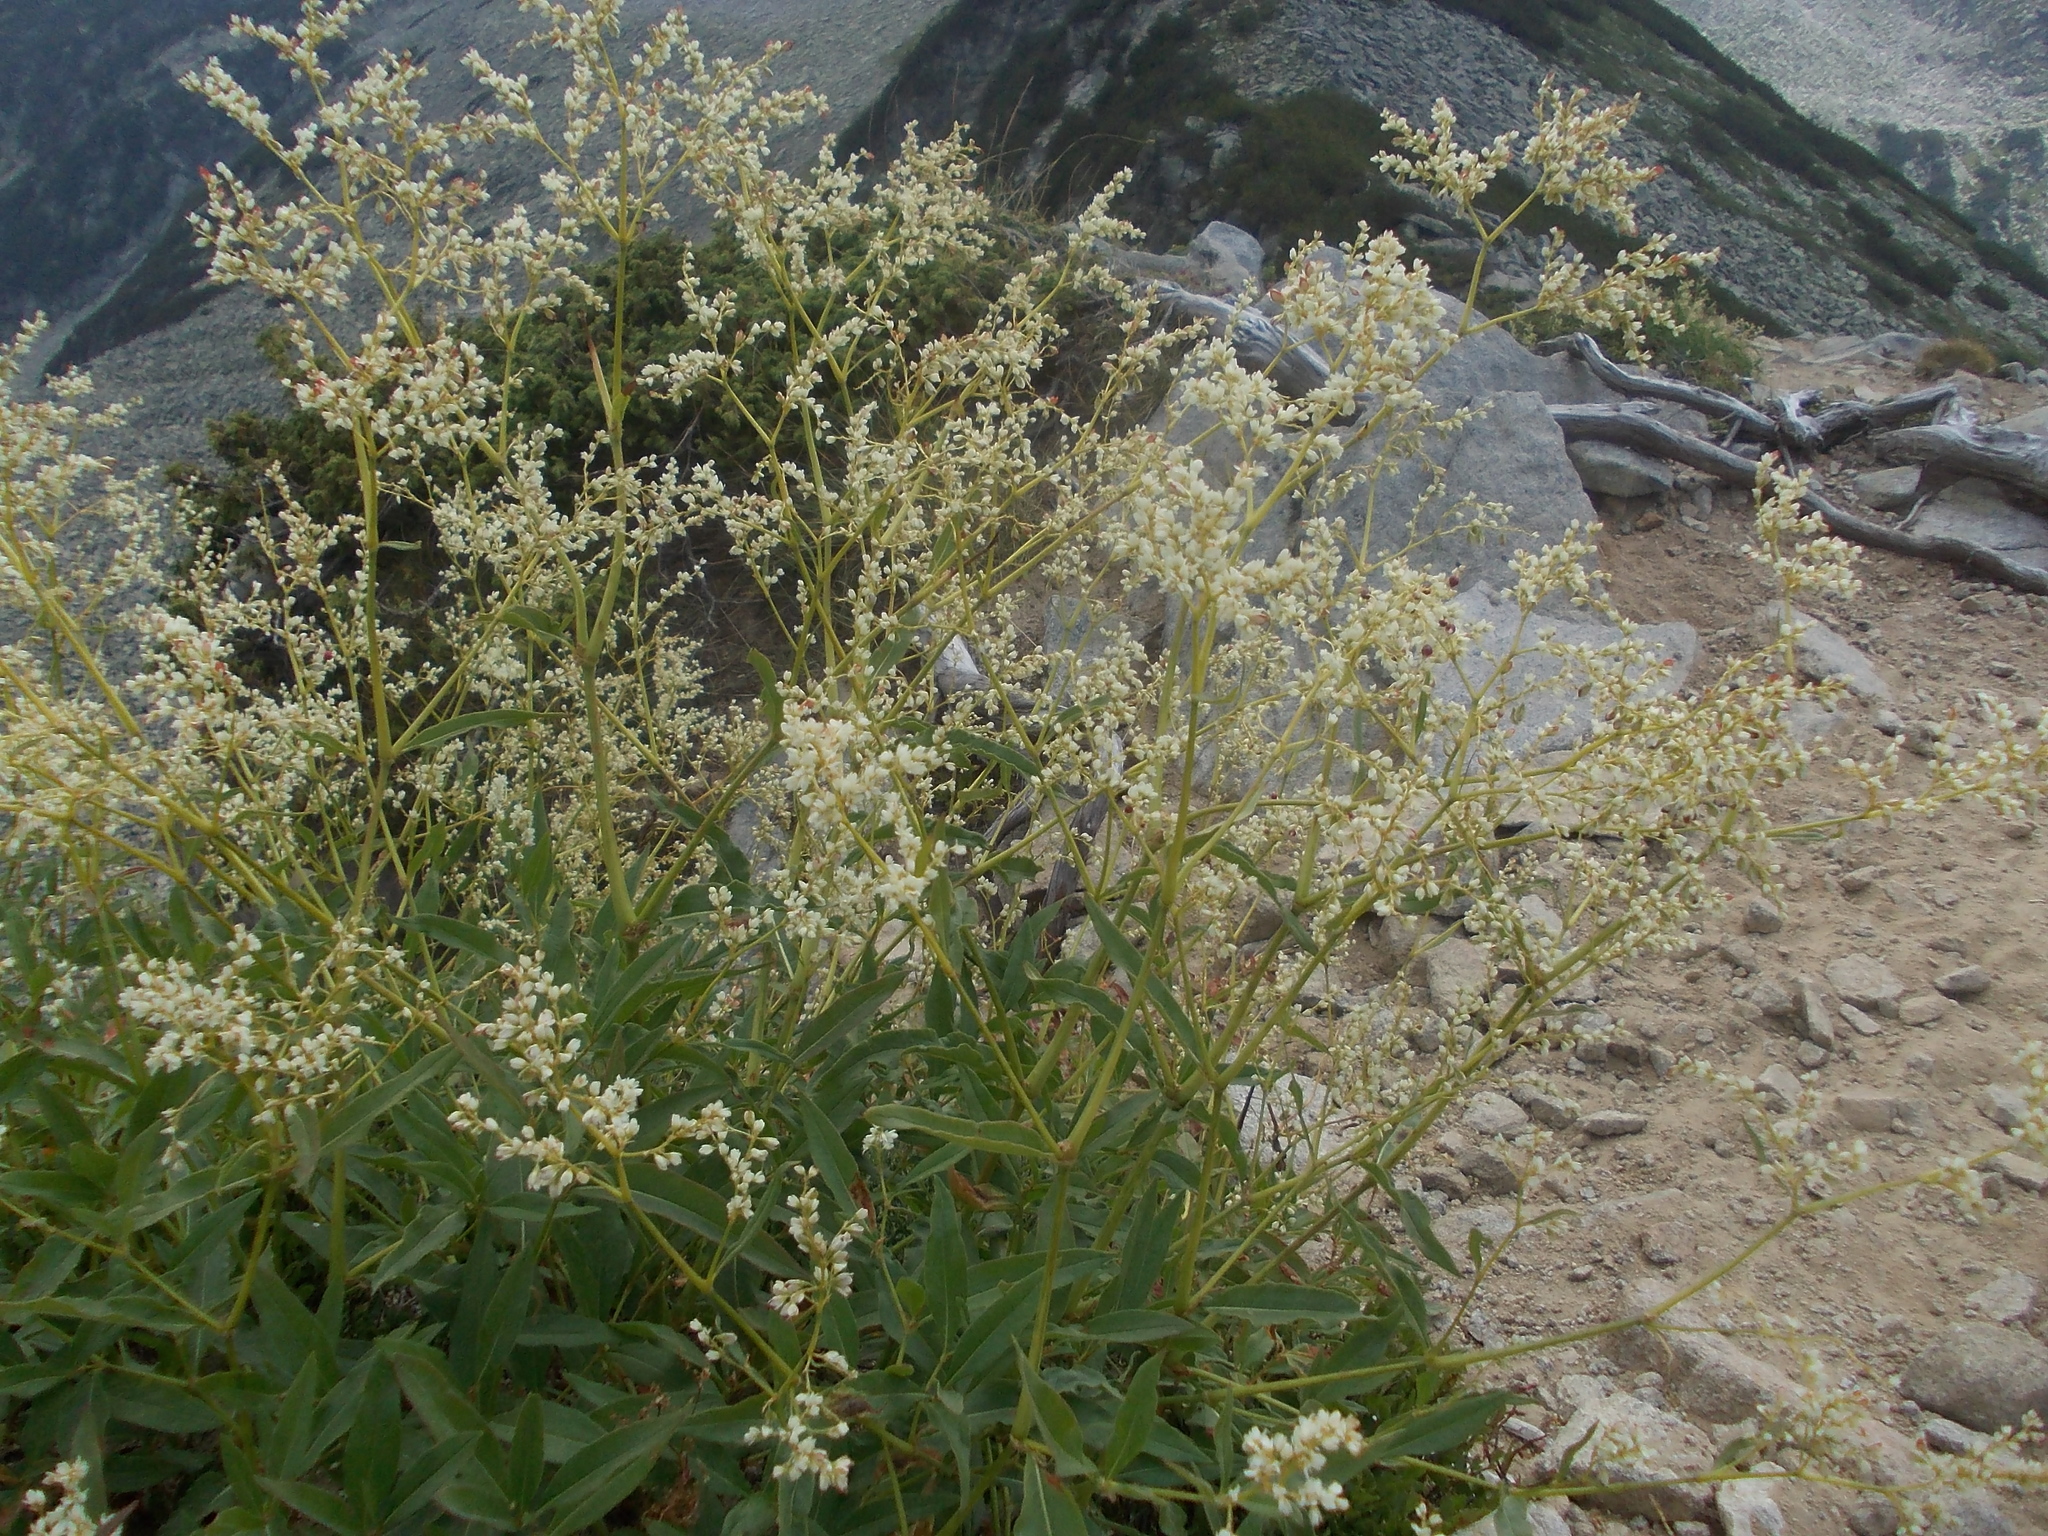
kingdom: Plantae
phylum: Tracheophyta
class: Magnoliopsida
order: Caryophyllales
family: Polygonaceae
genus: Koenigia
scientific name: Koenigia alpina
